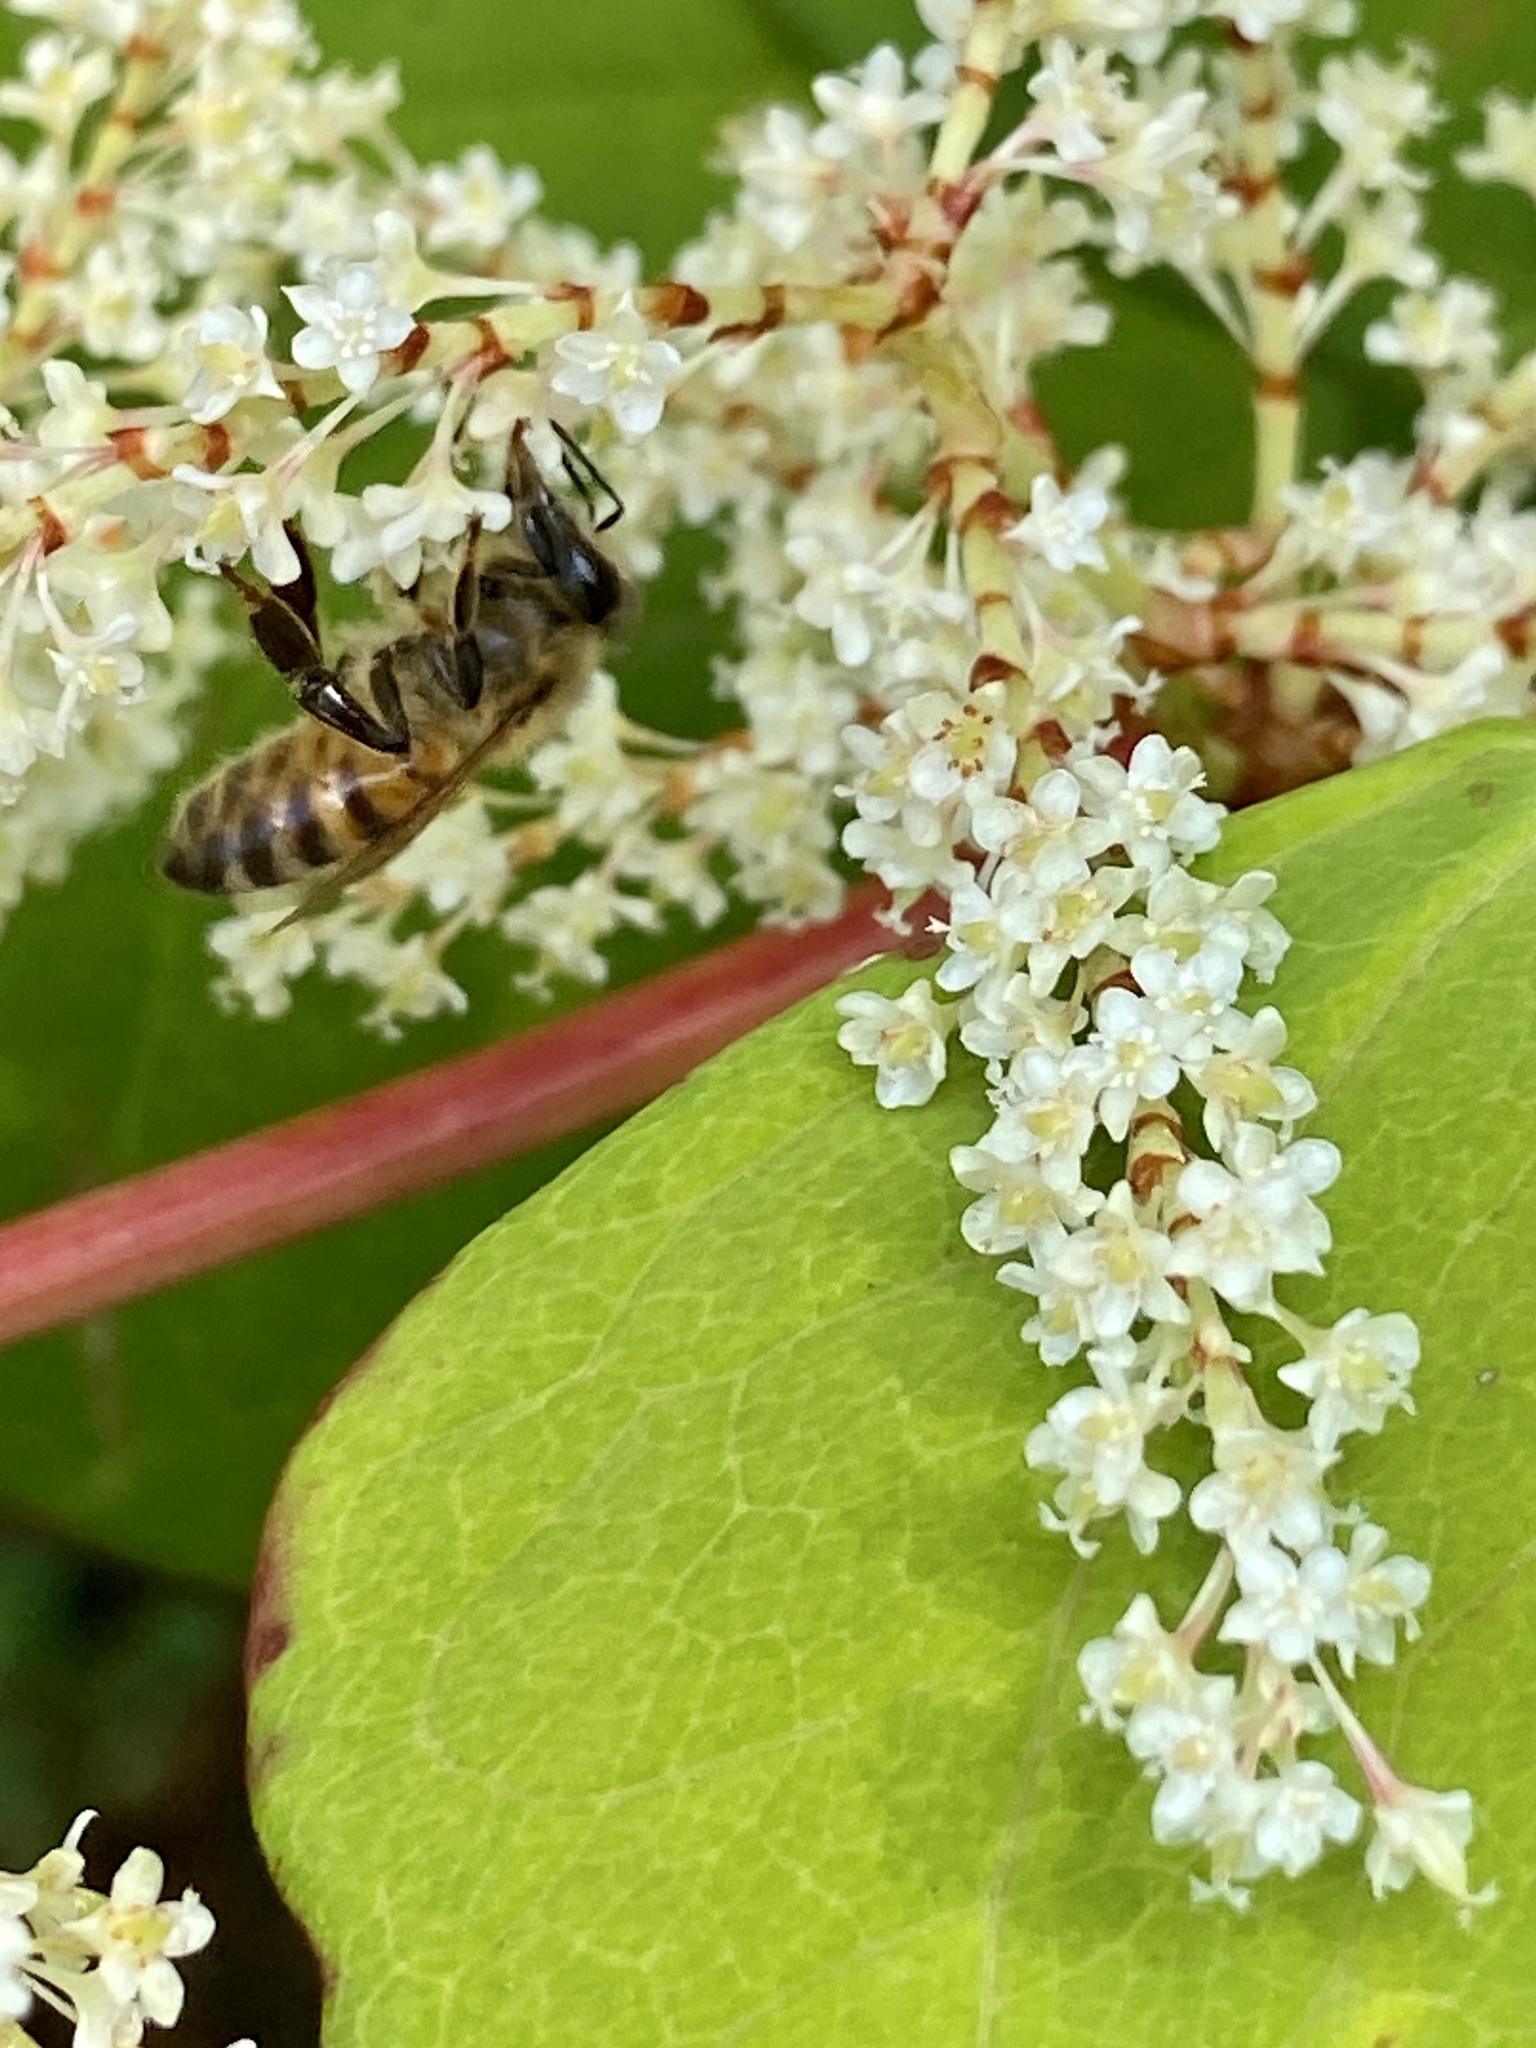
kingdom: Animalia
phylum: Arthropoda
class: Insecta
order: Hymenoptera
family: Apidae
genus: Apis
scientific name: Apis mellifera
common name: Honey bee
